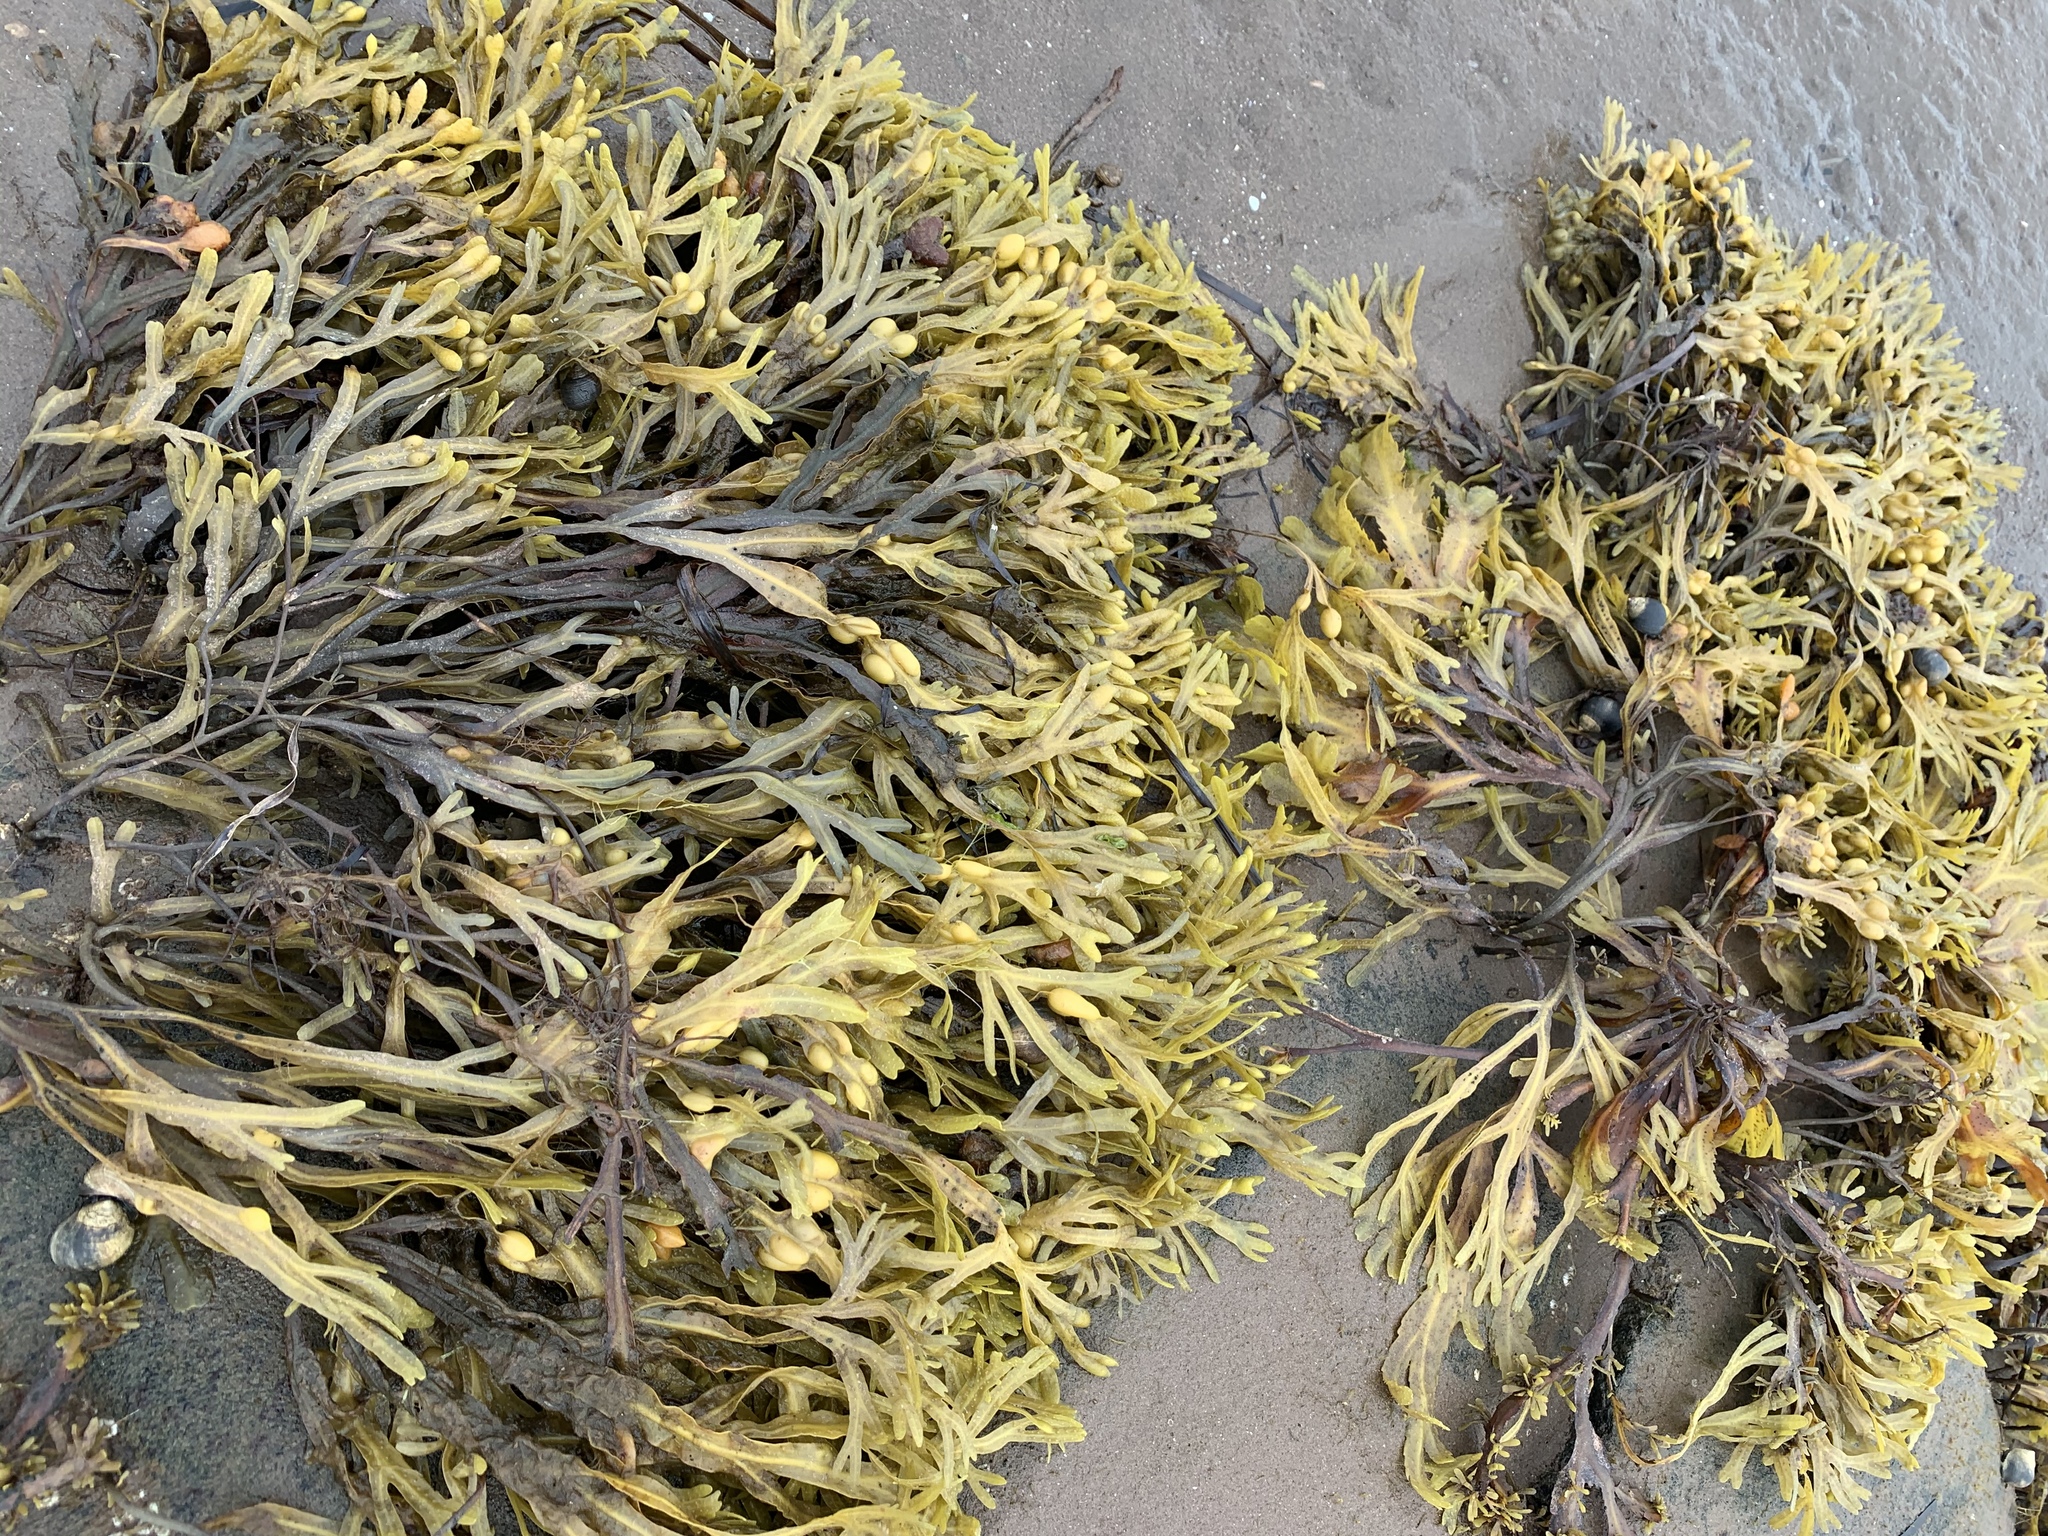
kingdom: Chromista
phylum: Ochrophyta
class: Phaeophyceae
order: Fucales
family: Fucaceae
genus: Fucus
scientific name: Fucus vesiculosus
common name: Bladder wrack
